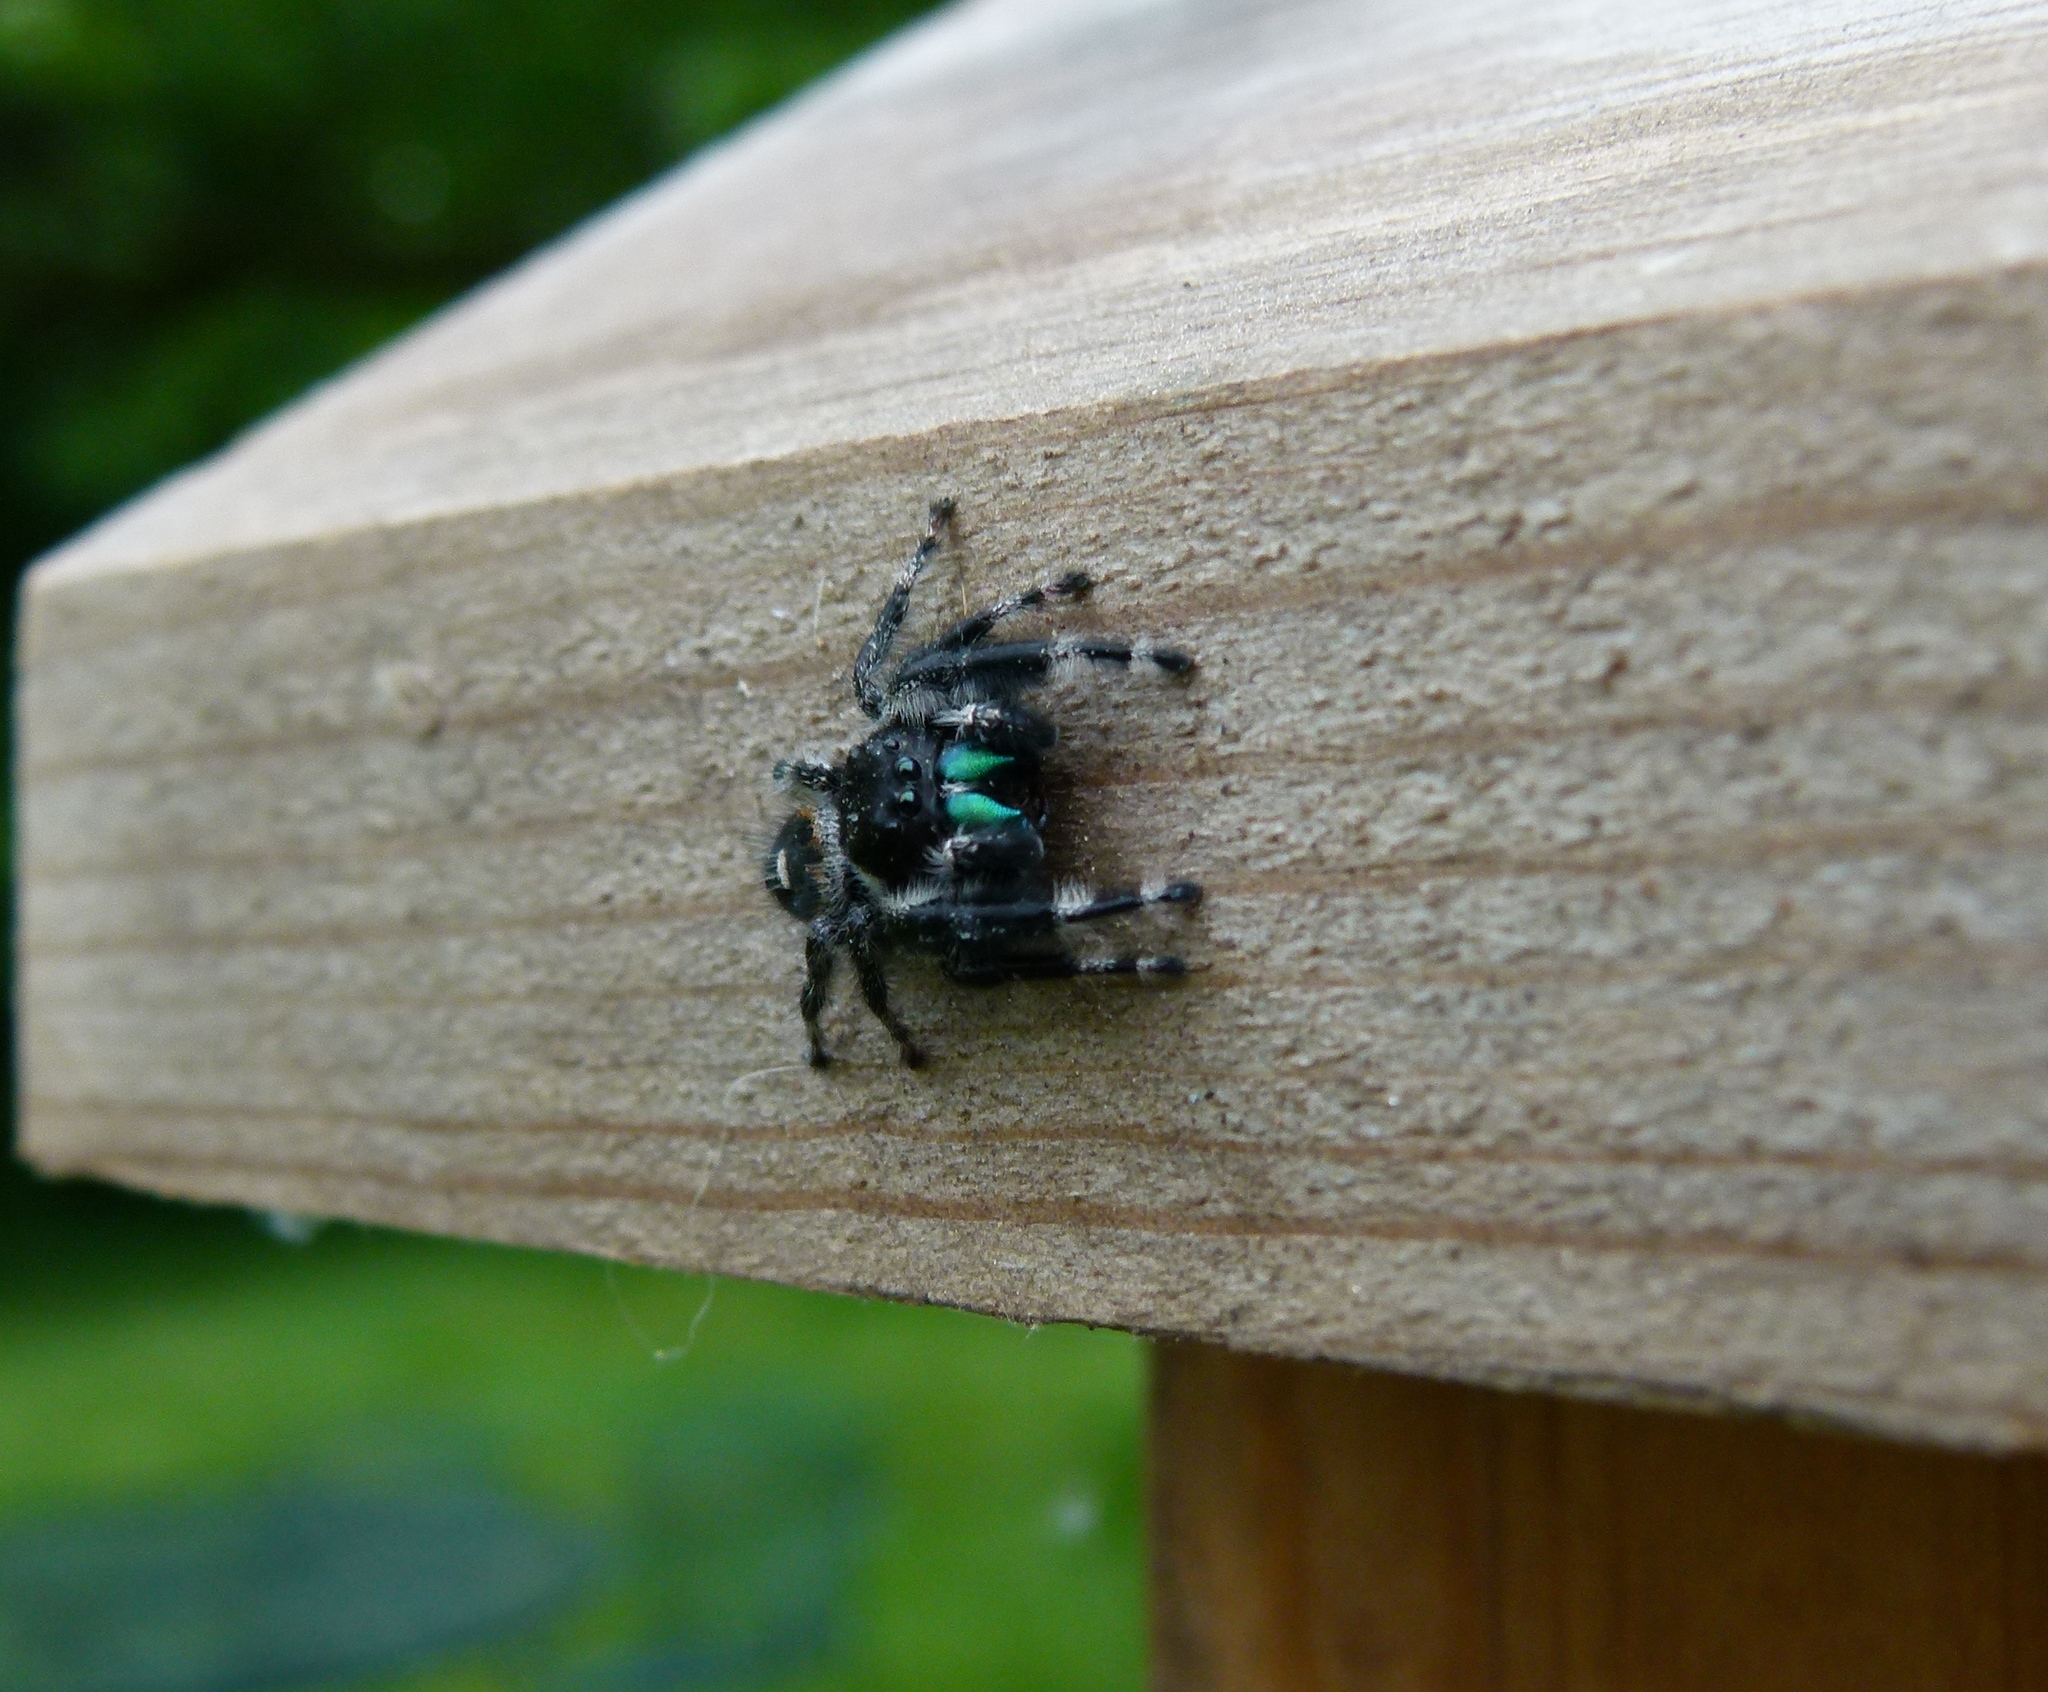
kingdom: Animalia
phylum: Arthropoda
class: Arachnida
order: Araneae
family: Salticidae
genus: Phidippus
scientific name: Phidippus audax
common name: Bold jumper
